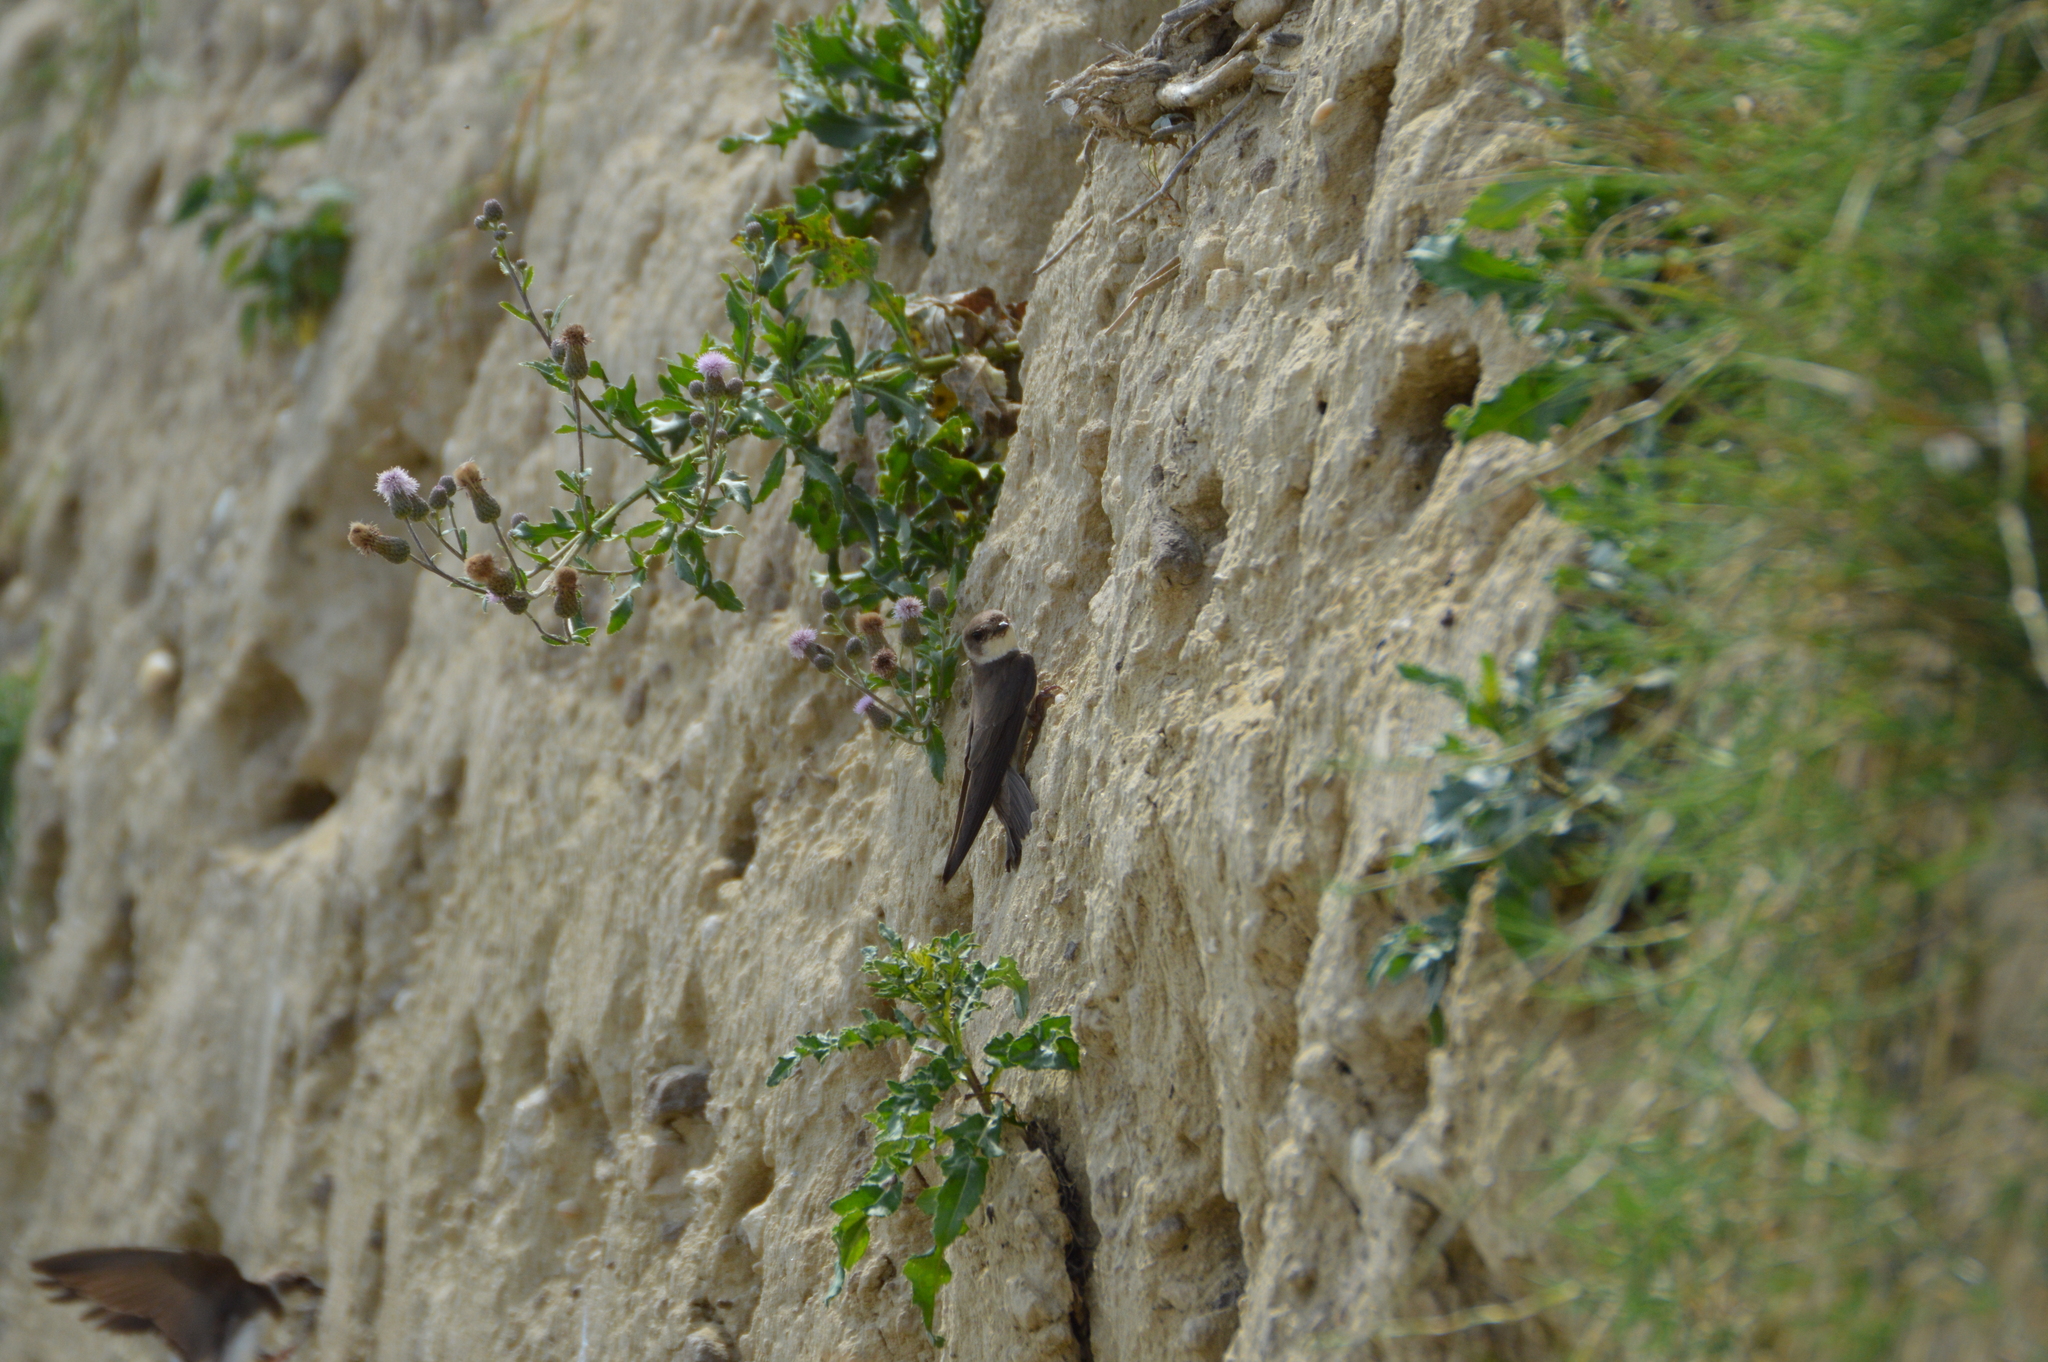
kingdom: Animalia
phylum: Chordata
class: Aves
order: Passeriformes
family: Hirundinidae
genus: Riparia
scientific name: Riparia riparia
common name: Sand martin
